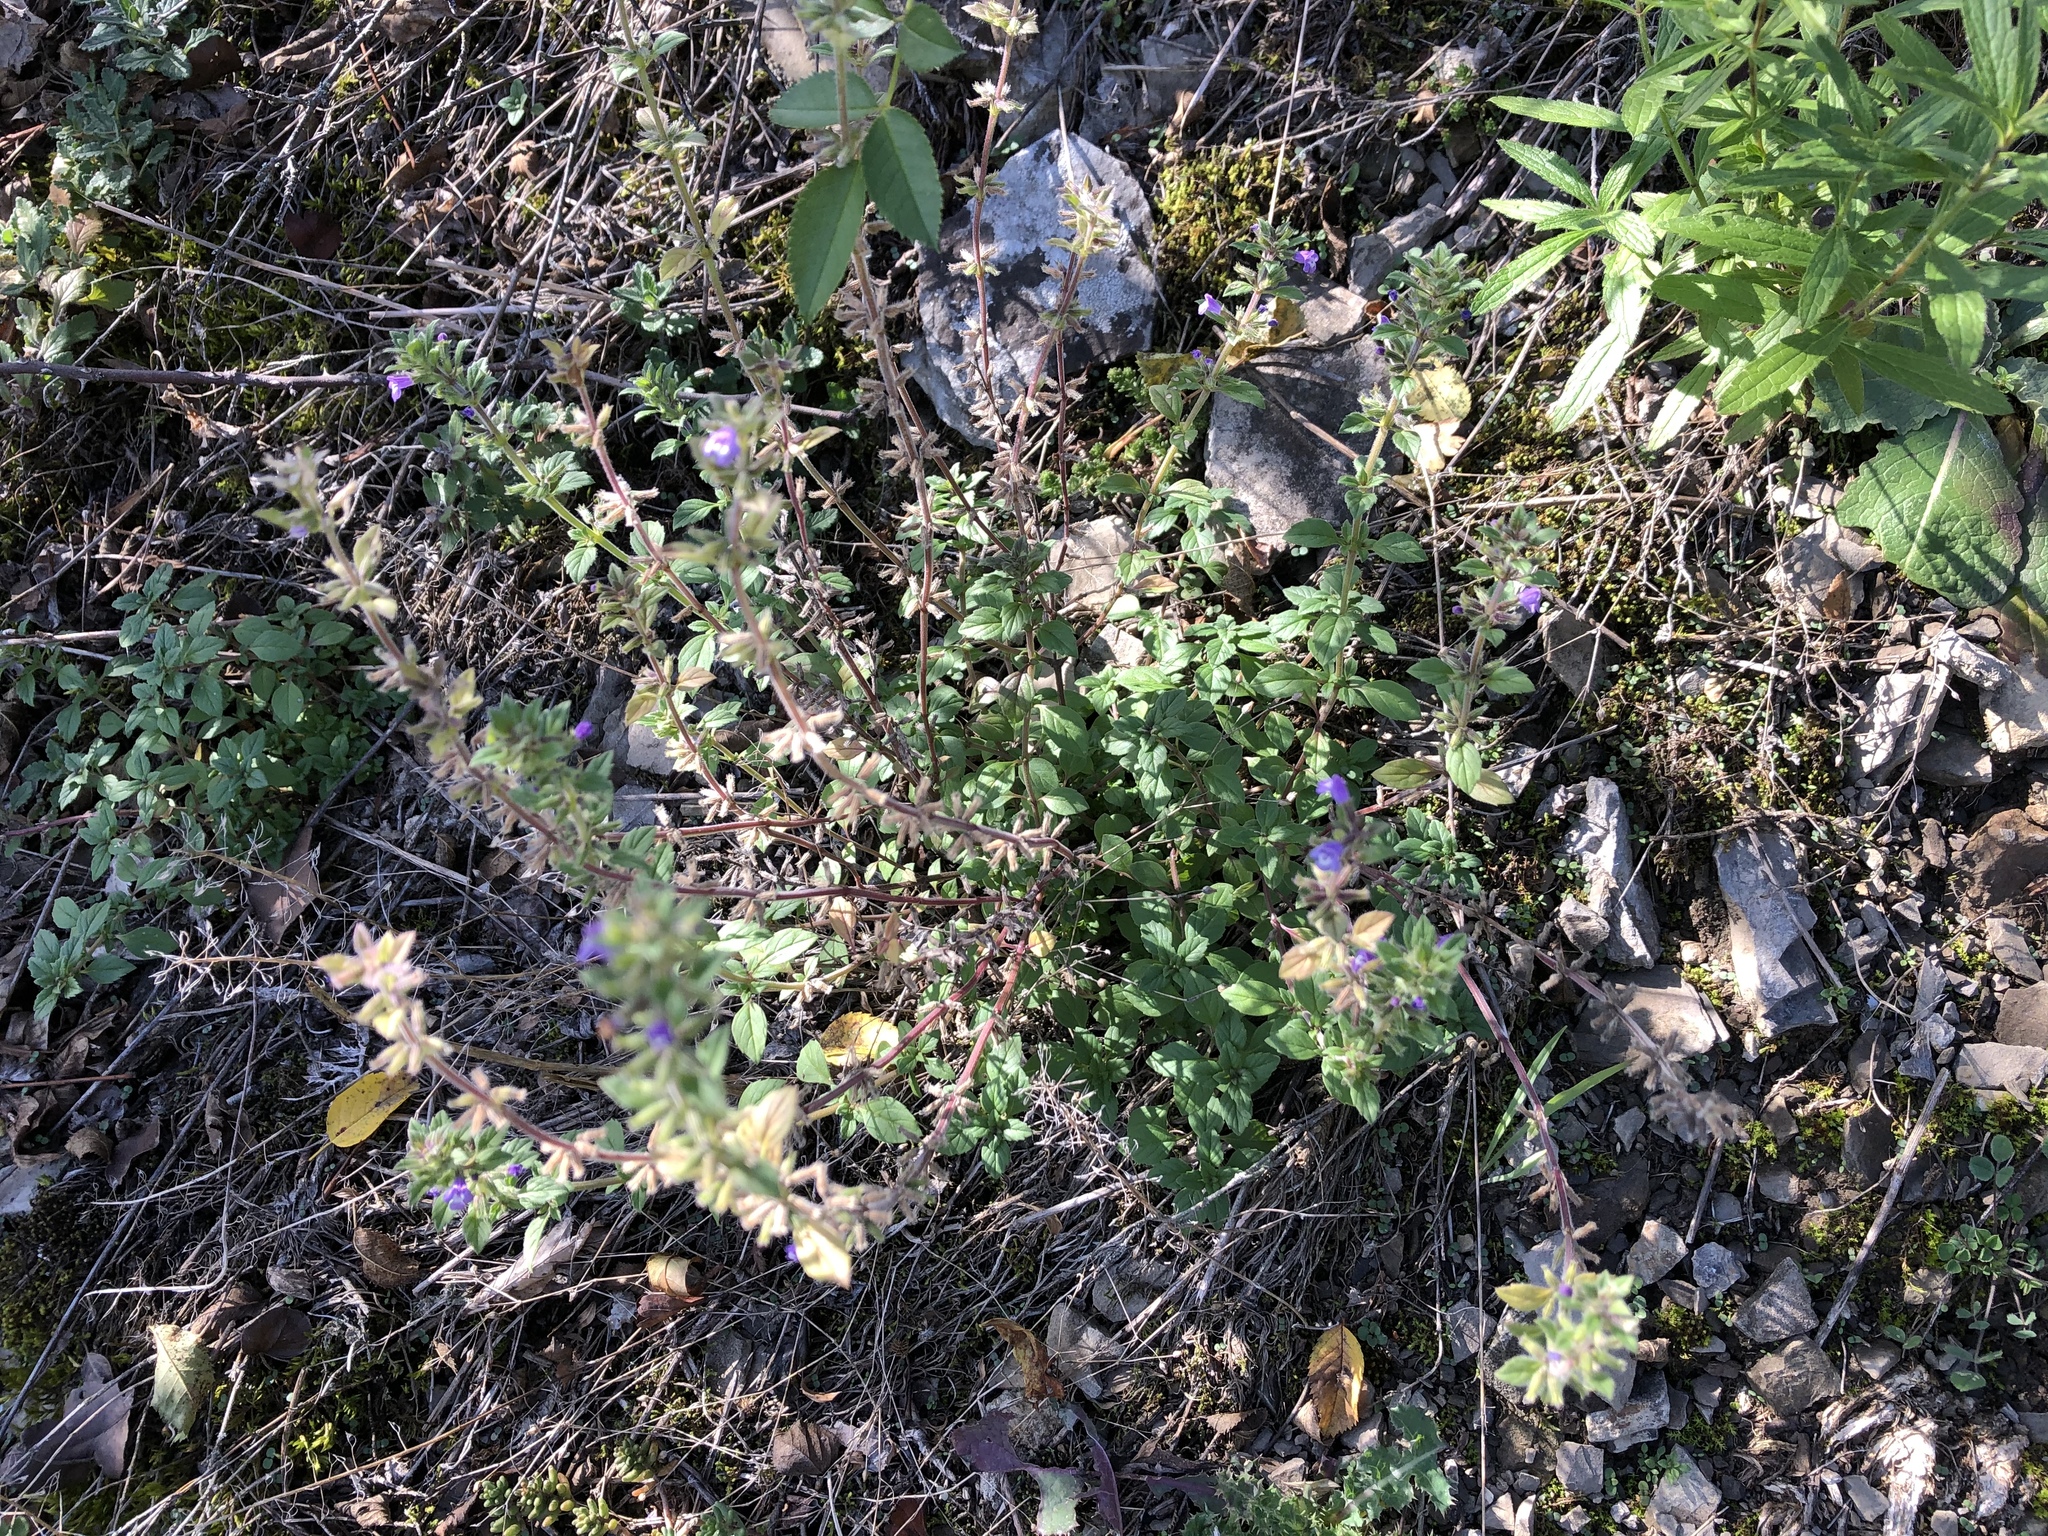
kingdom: Plantae
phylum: Tracheophyta
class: Magnoliopsida
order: Lamiales
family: Lamiaceae
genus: Clinopodium
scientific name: Clinopodium acinos
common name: Basil thyme
